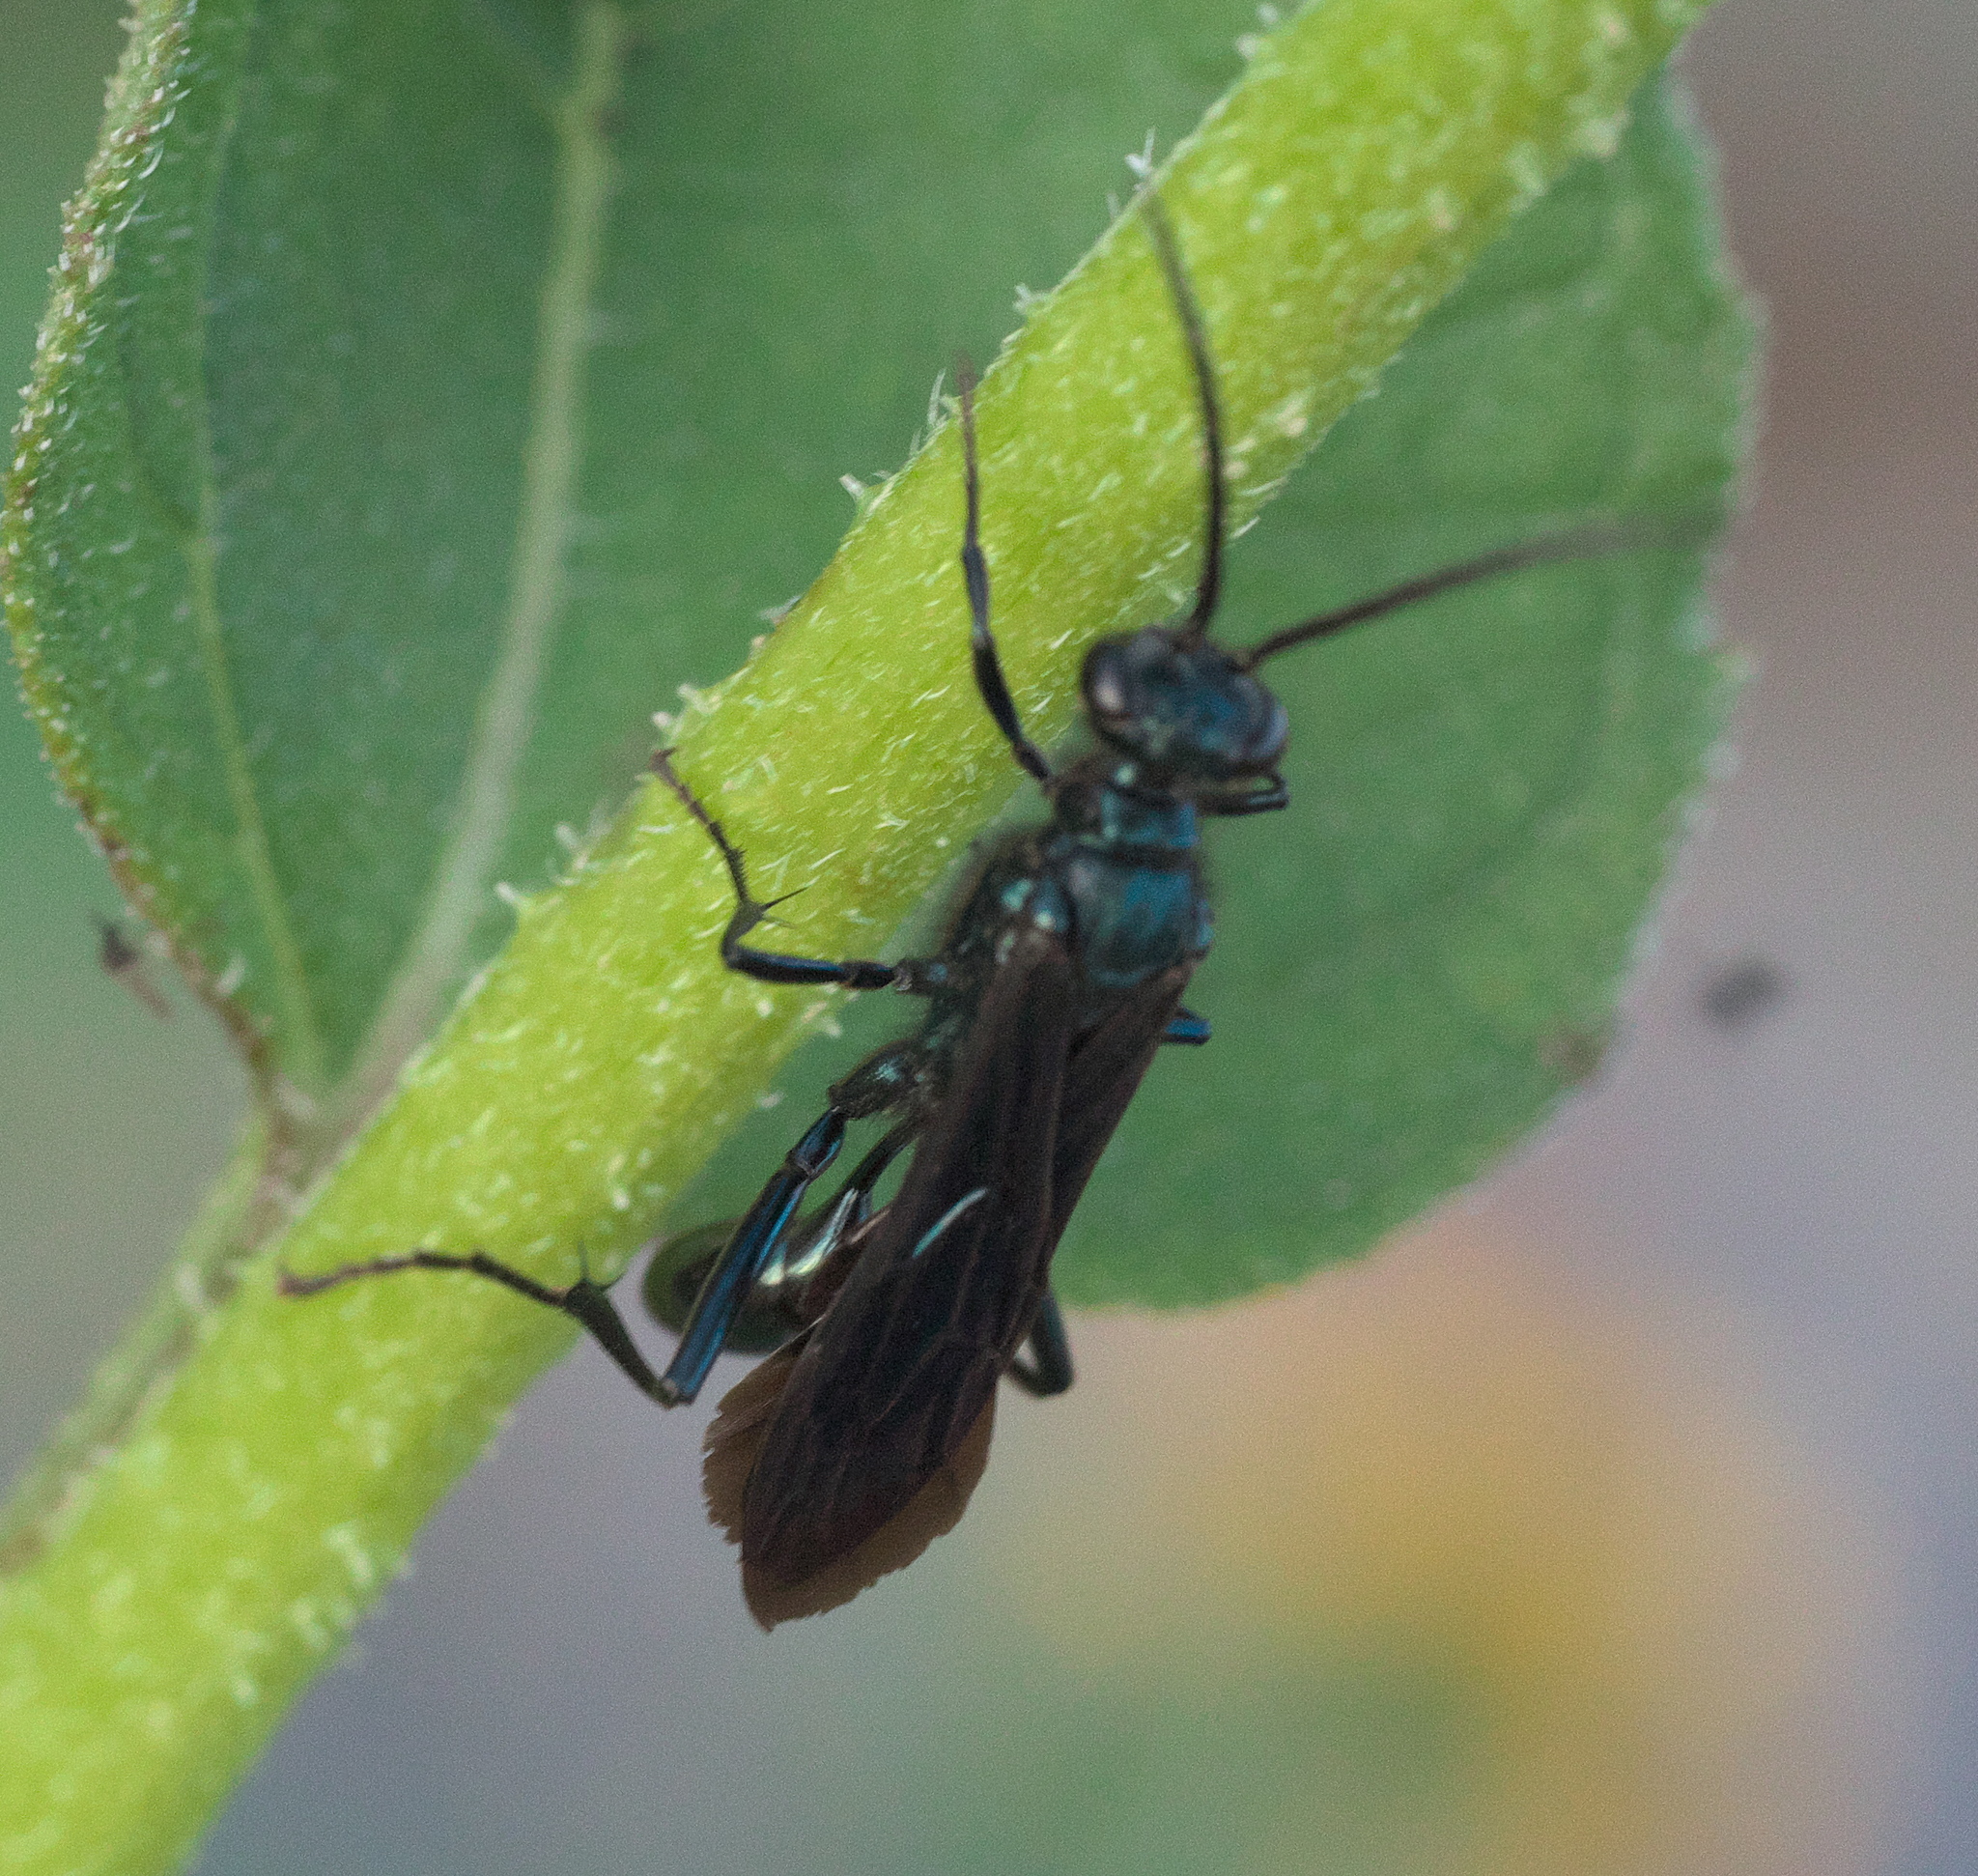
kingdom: Animalia
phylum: Arthropoda
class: Insecta
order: Hymenoptera
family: Sphecidae
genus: Chalybion
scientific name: Chalybion californicum
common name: Mud dauber
